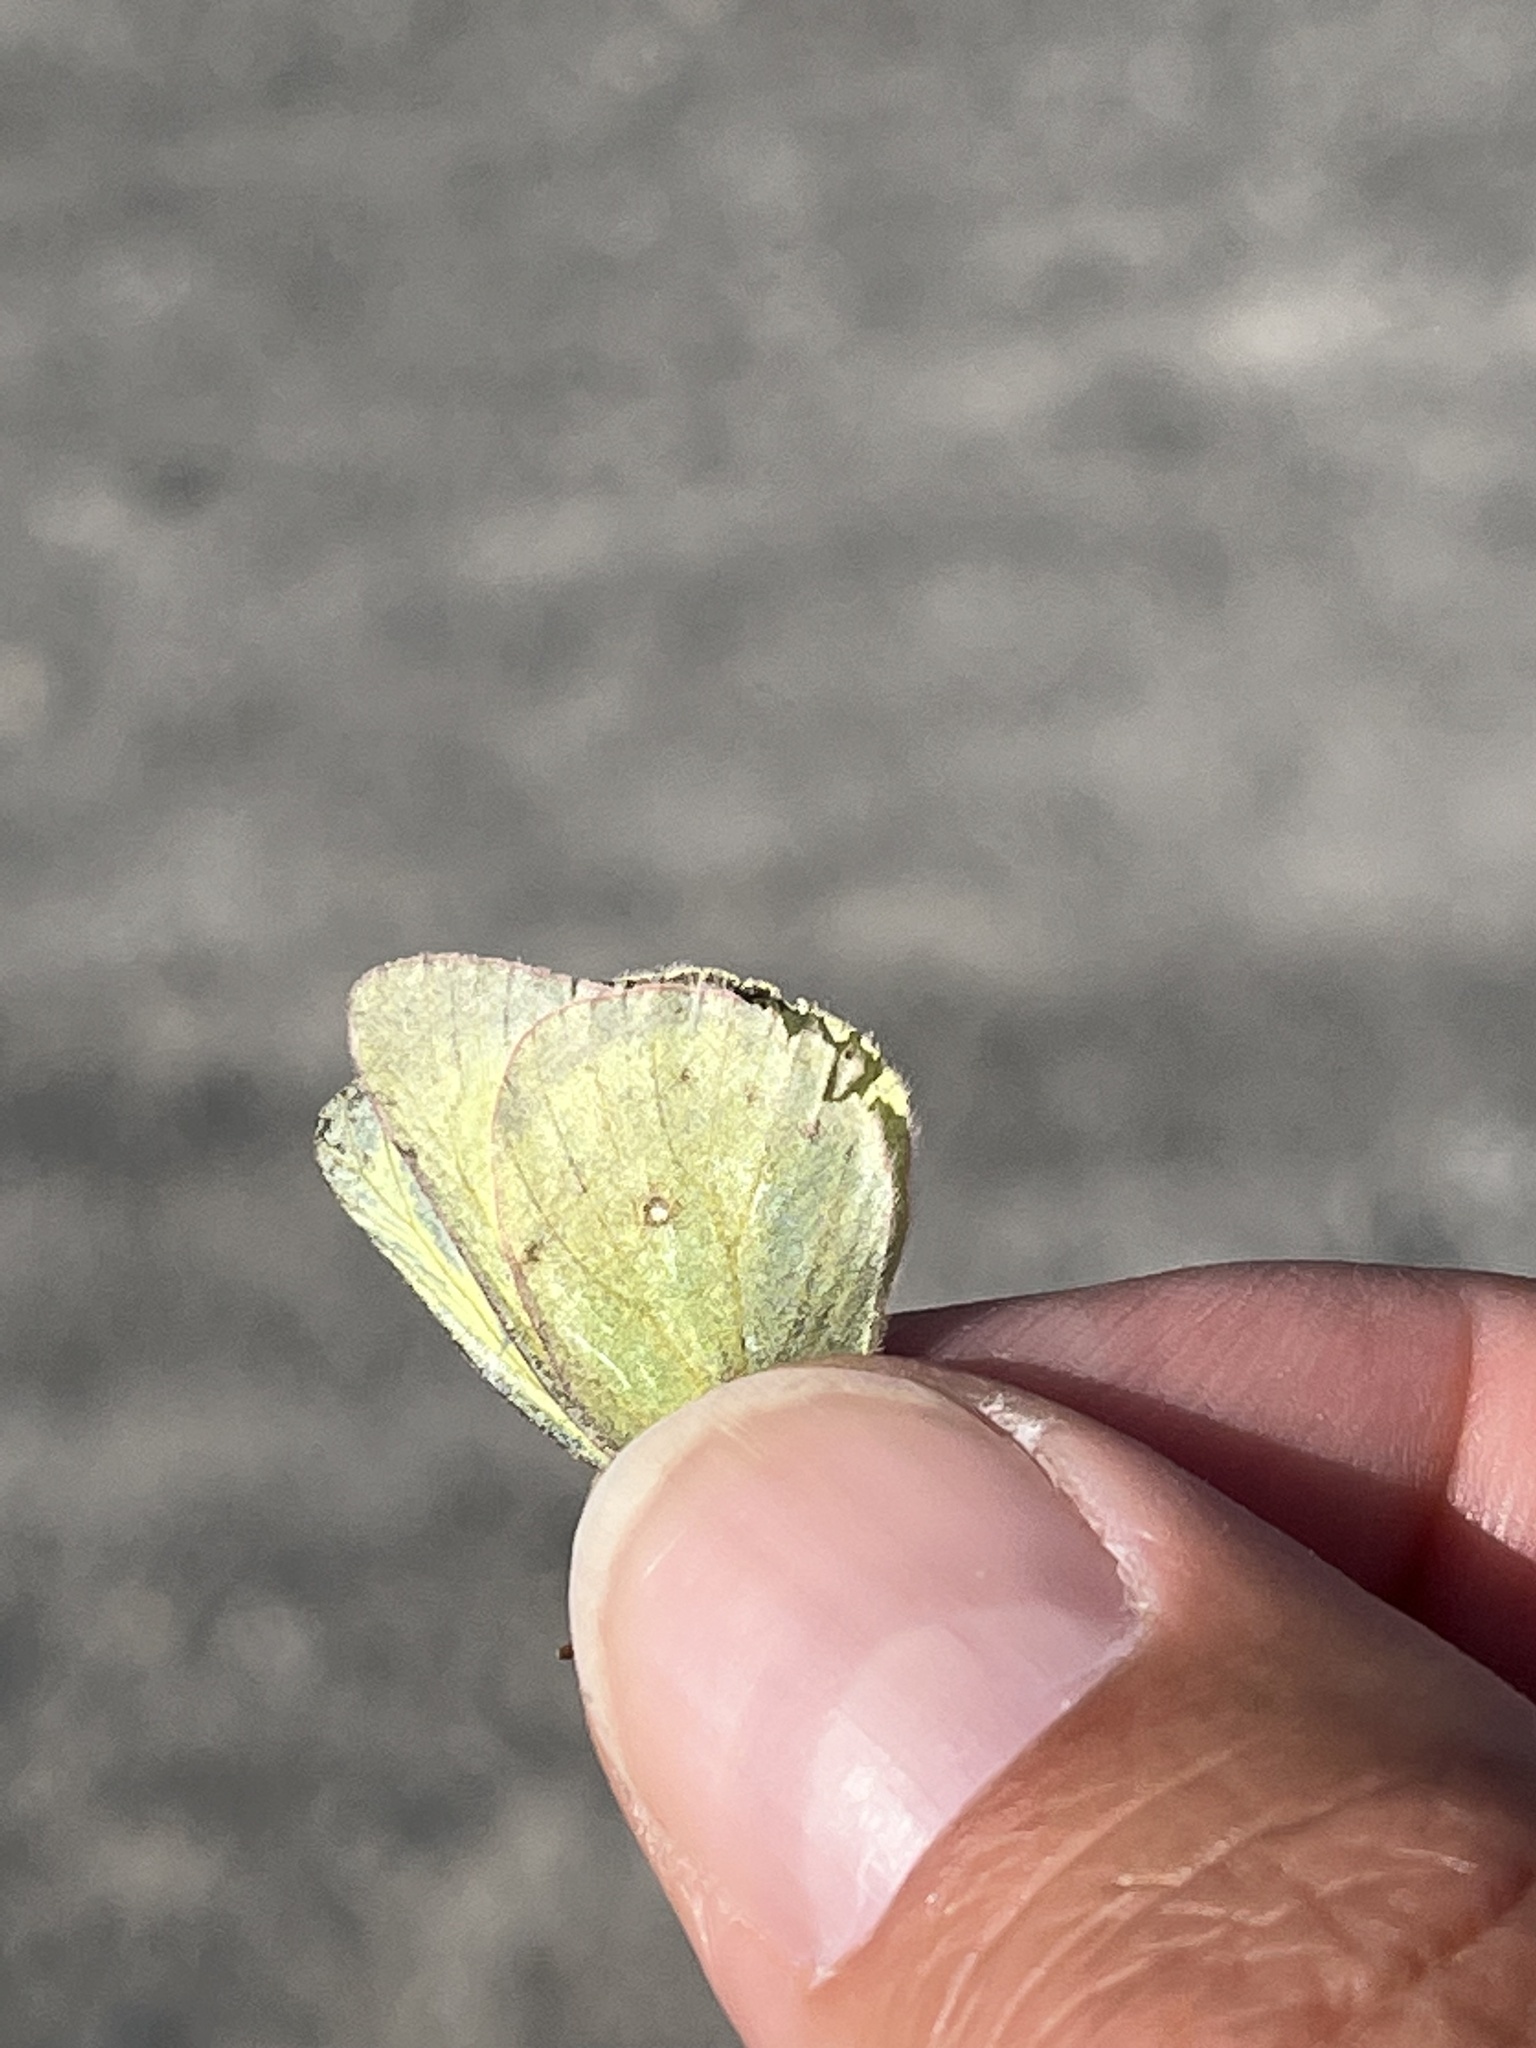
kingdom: Animalia
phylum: Arthropoda
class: Insecta
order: Lepidoptera
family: Pieridae
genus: Colias
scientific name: Colias philodice
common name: Clouded sulphur
